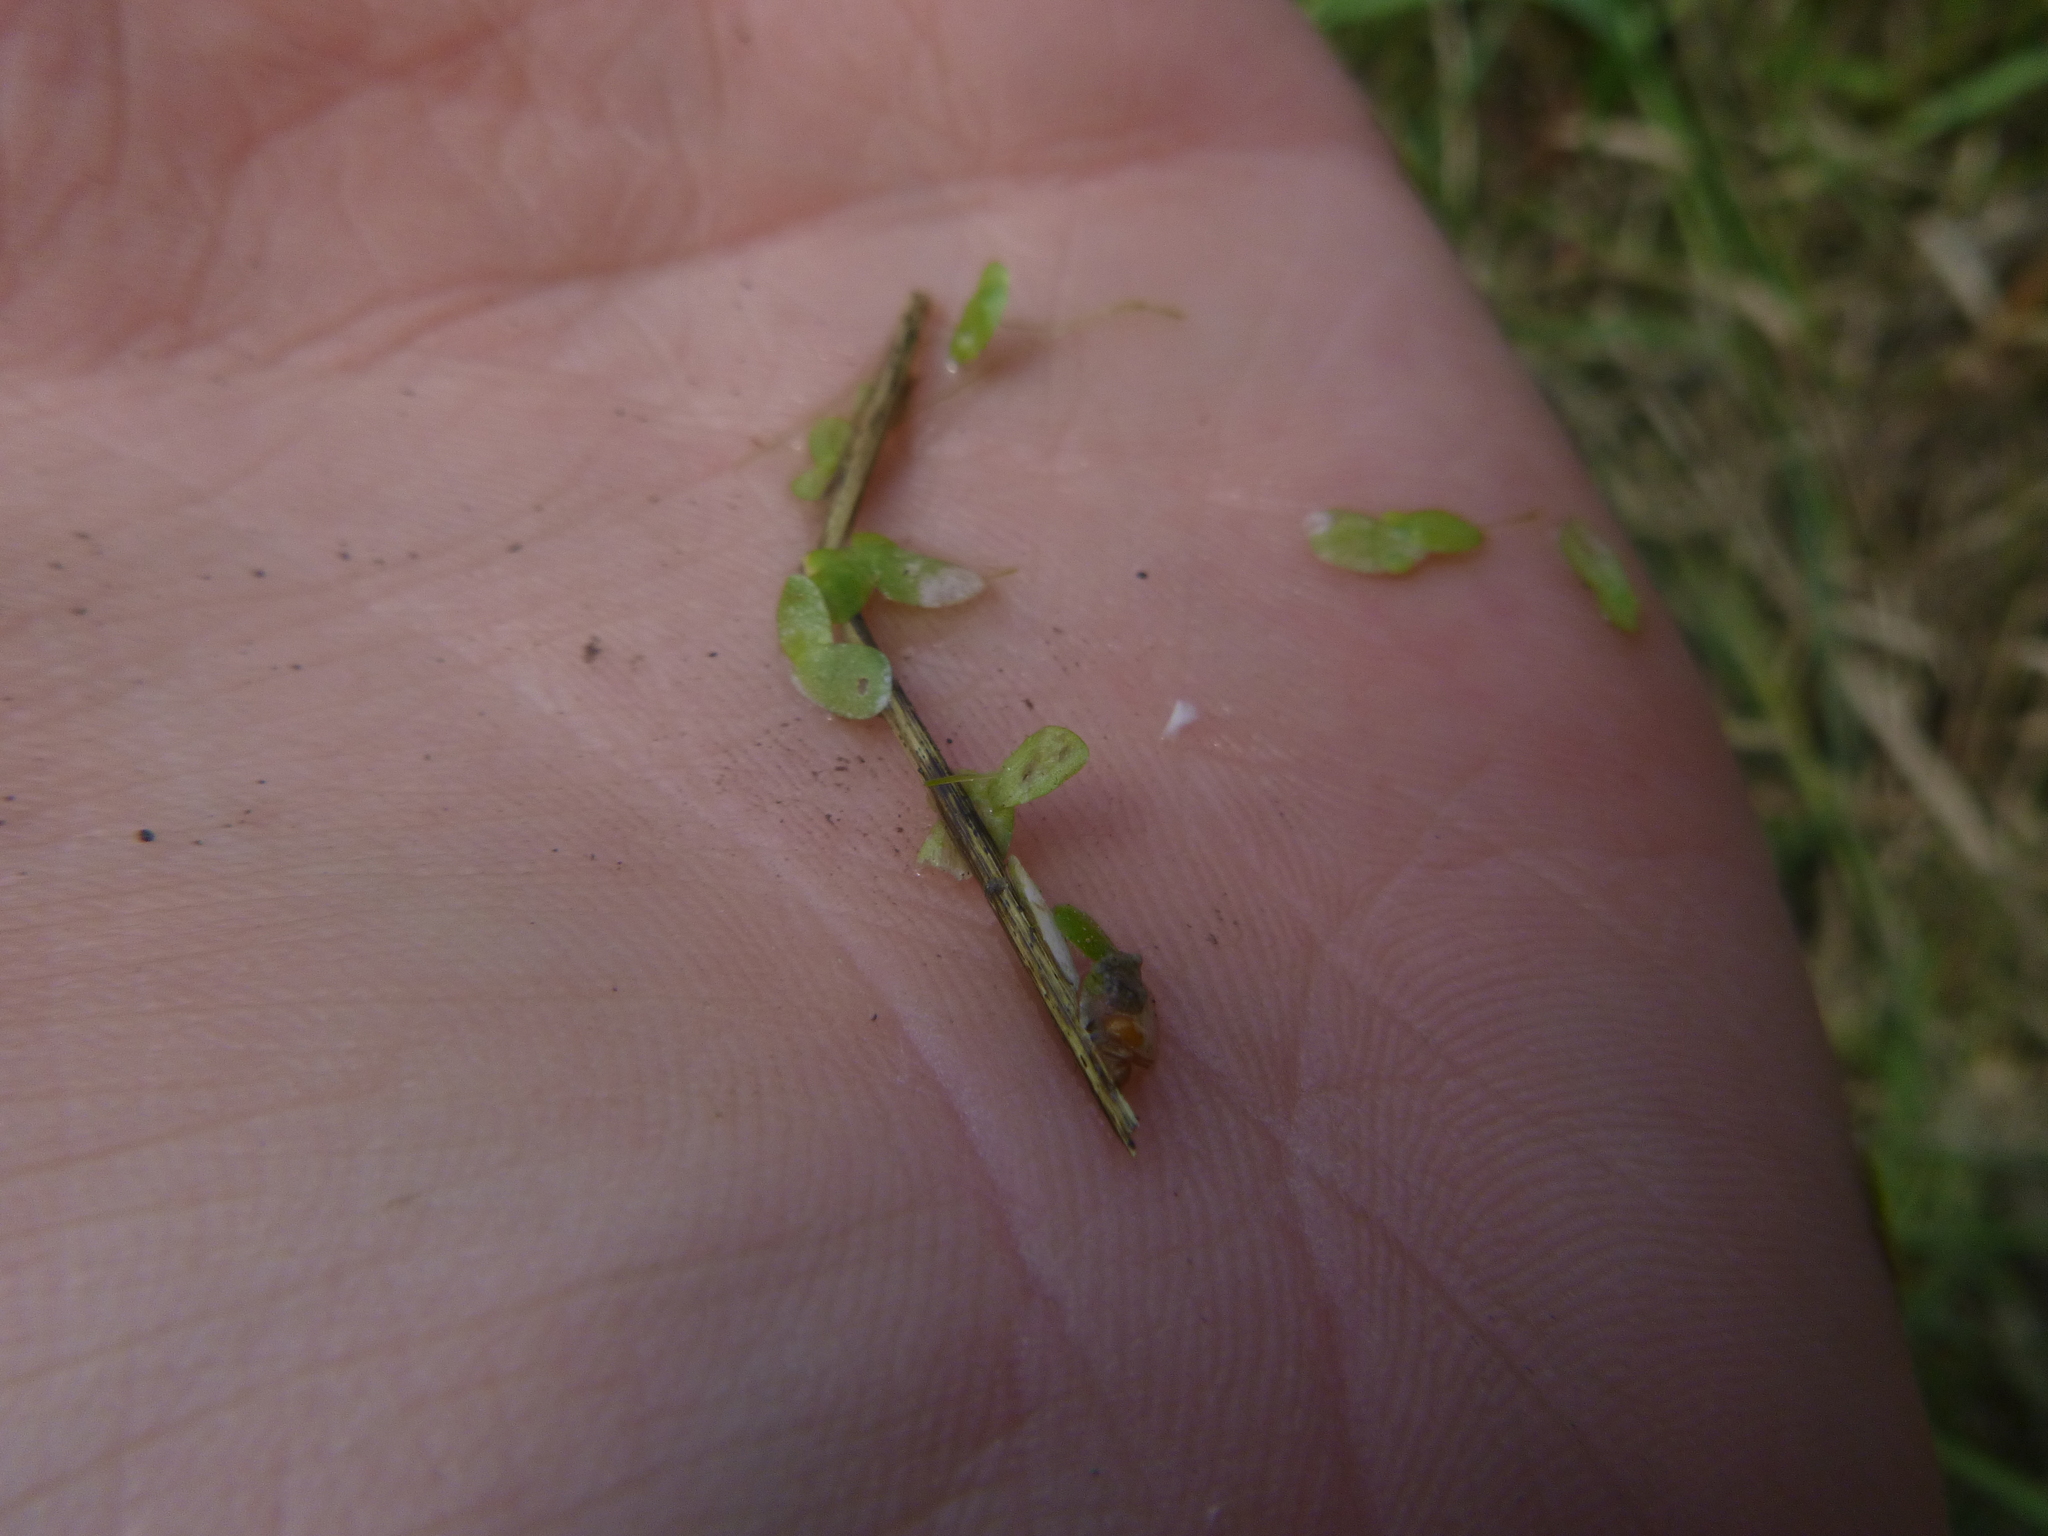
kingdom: Plantae
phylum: Tracheophyta
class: Liliopsida
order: Alismatales
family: Araceae
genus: Lemna
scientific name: Lemna minor
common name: Common duckweed
